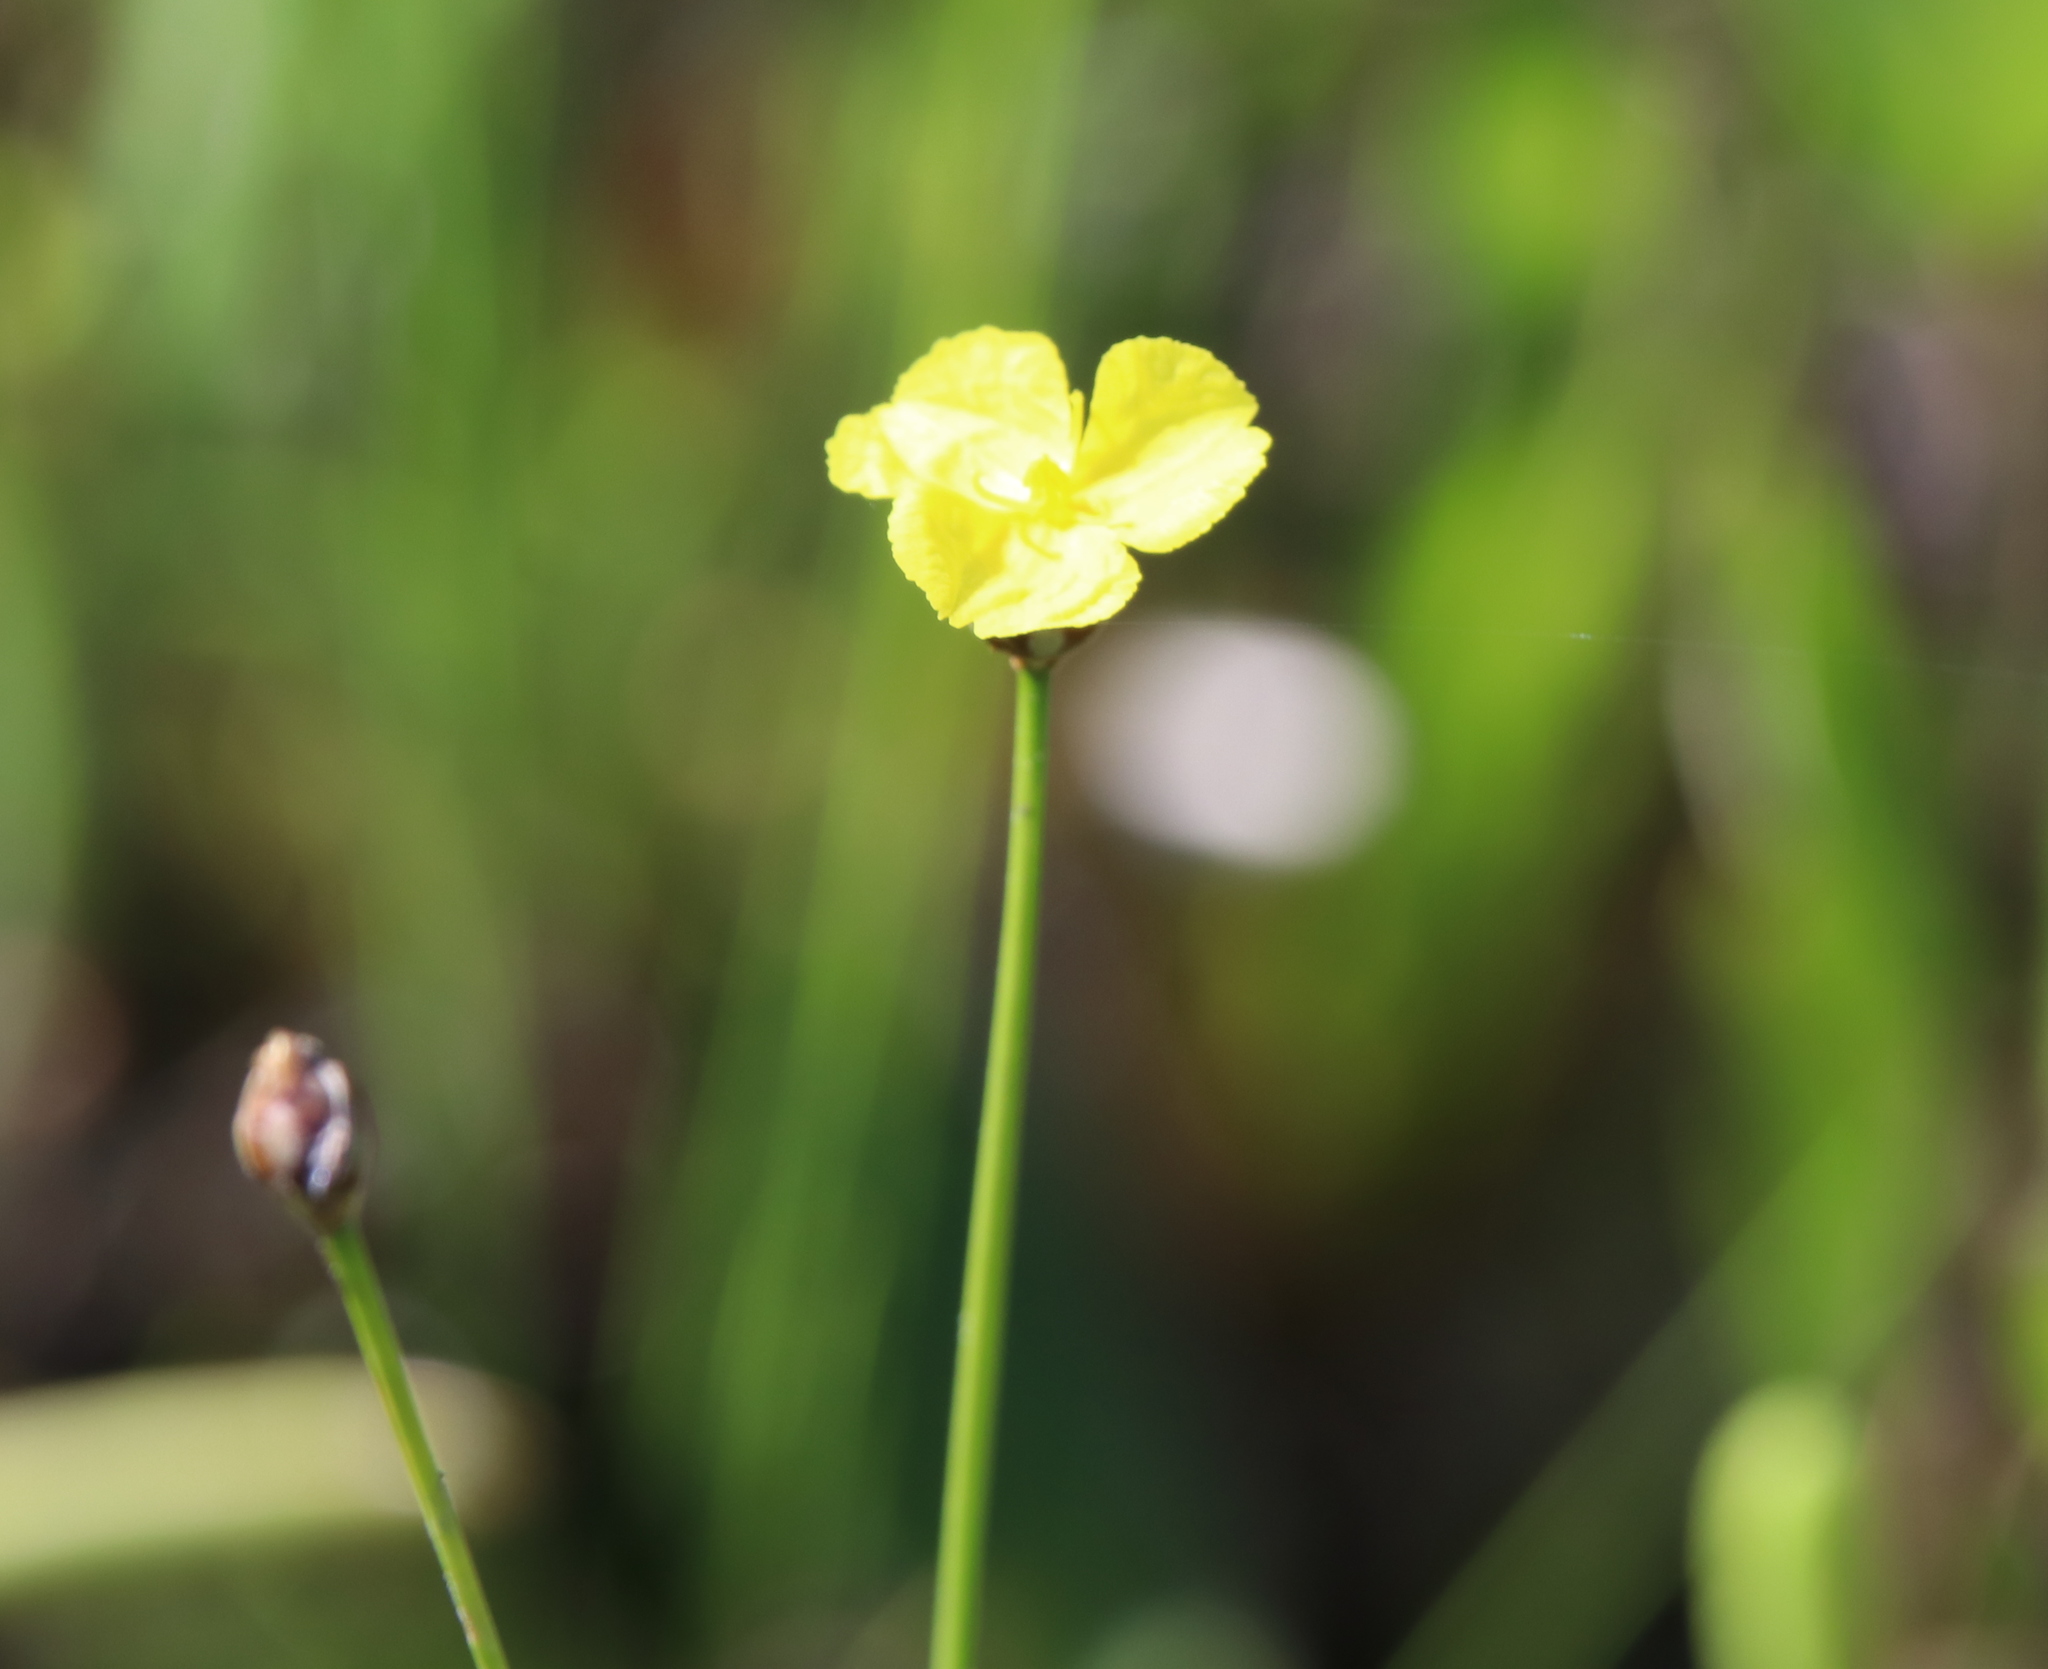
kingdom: Plantae
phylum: Tracheophyta
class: Liliopsida
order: Poales
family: Xyridaceae
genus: Xyris
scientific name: Xyris baldwiniana
